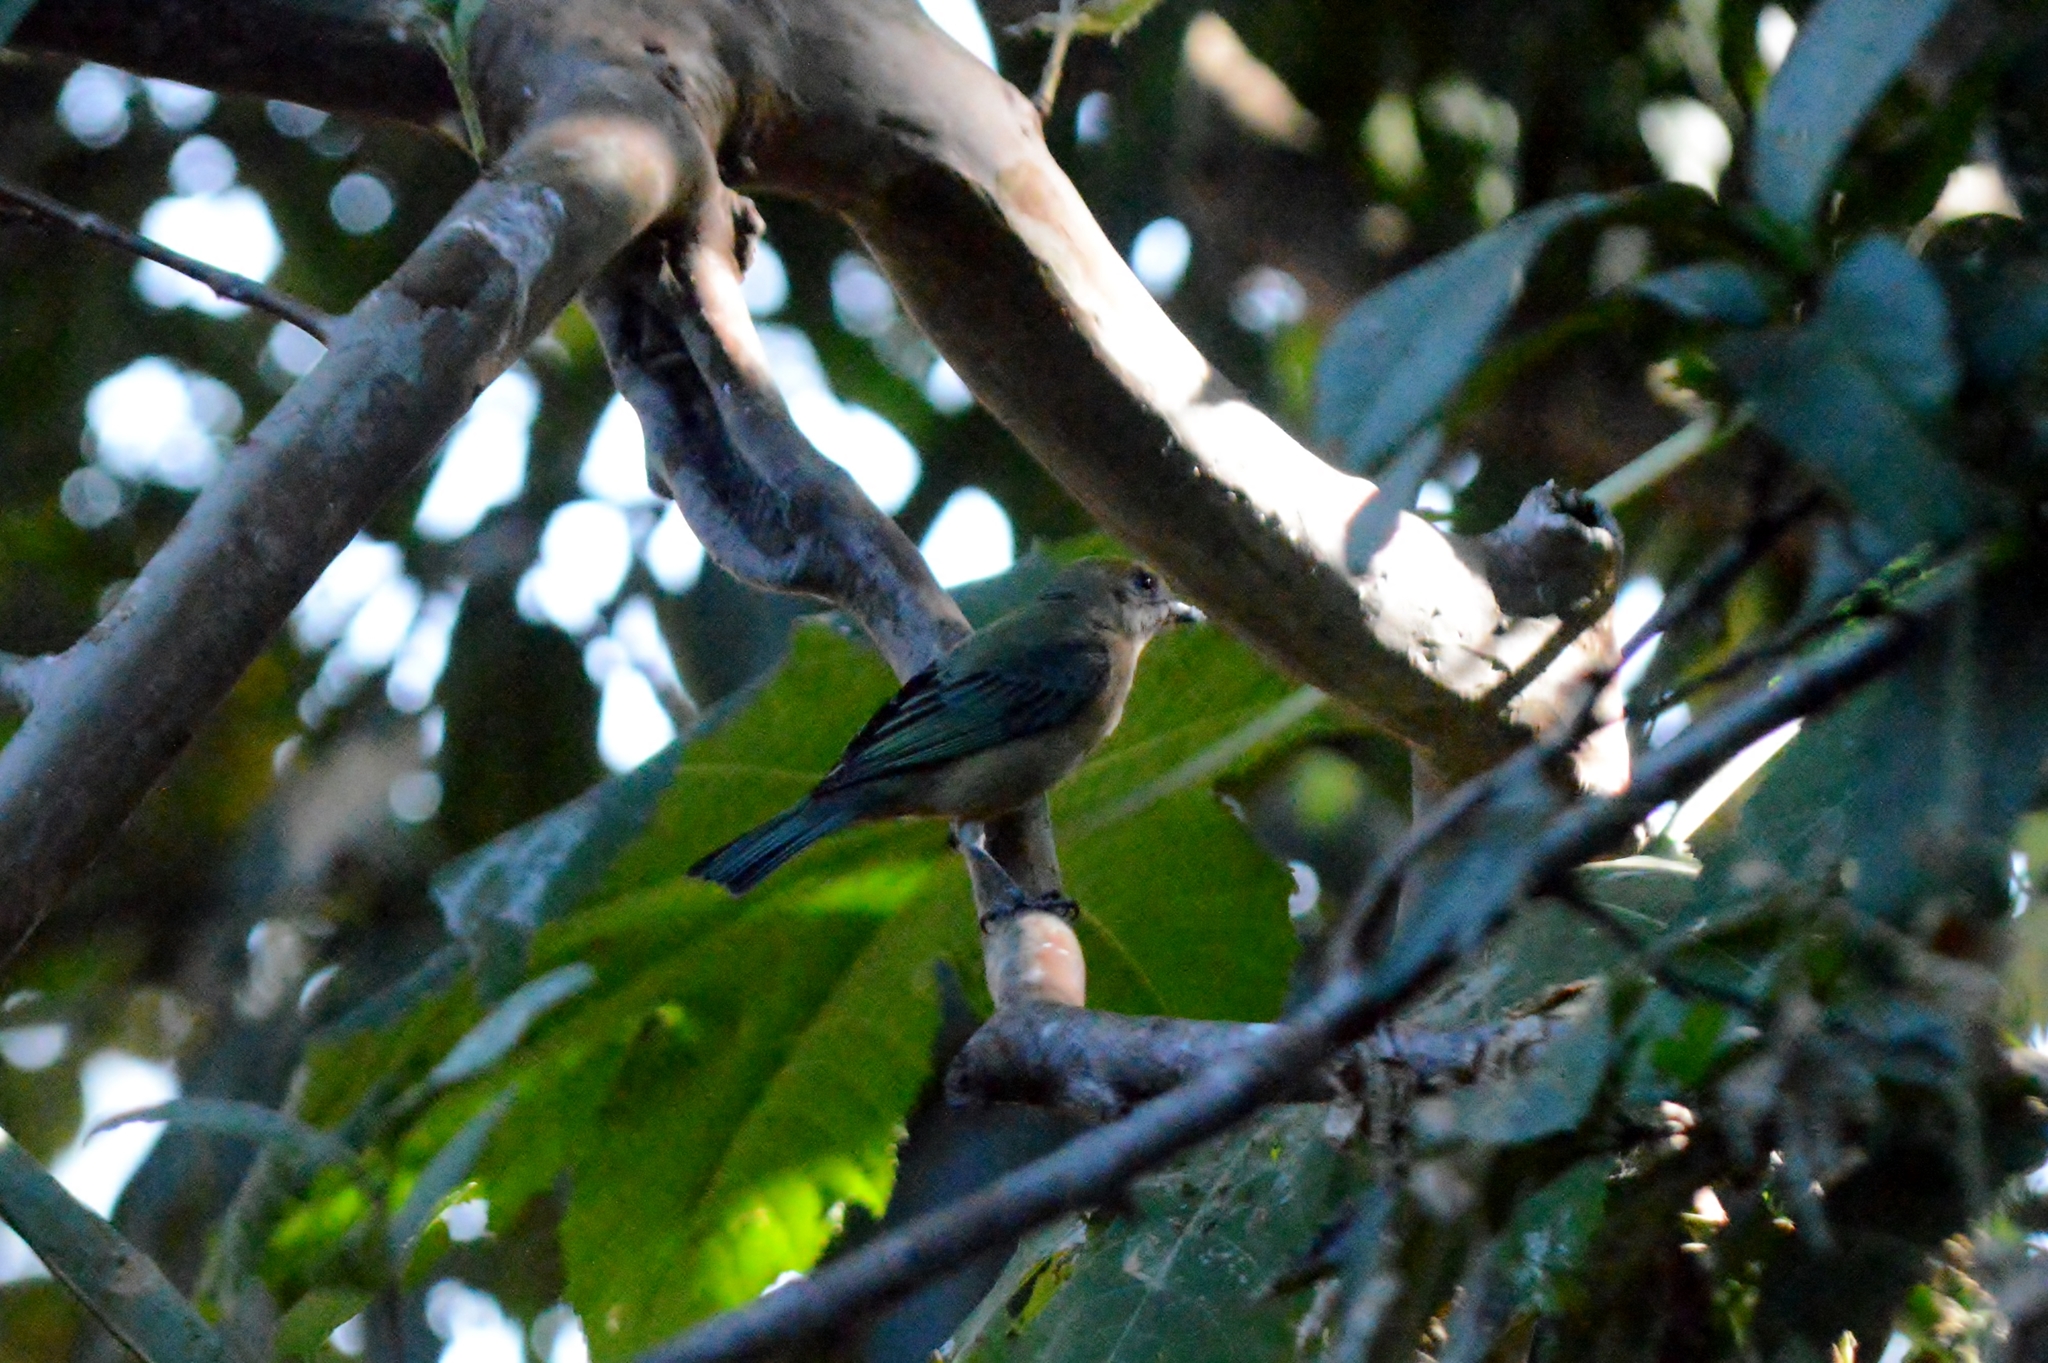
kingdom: Animalia
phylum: Chordata
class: Aves
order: Passeriformes
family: Thraupidae
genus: Stilpnia
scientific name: Stilpnia cayana
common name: Burnished-buff tanager
